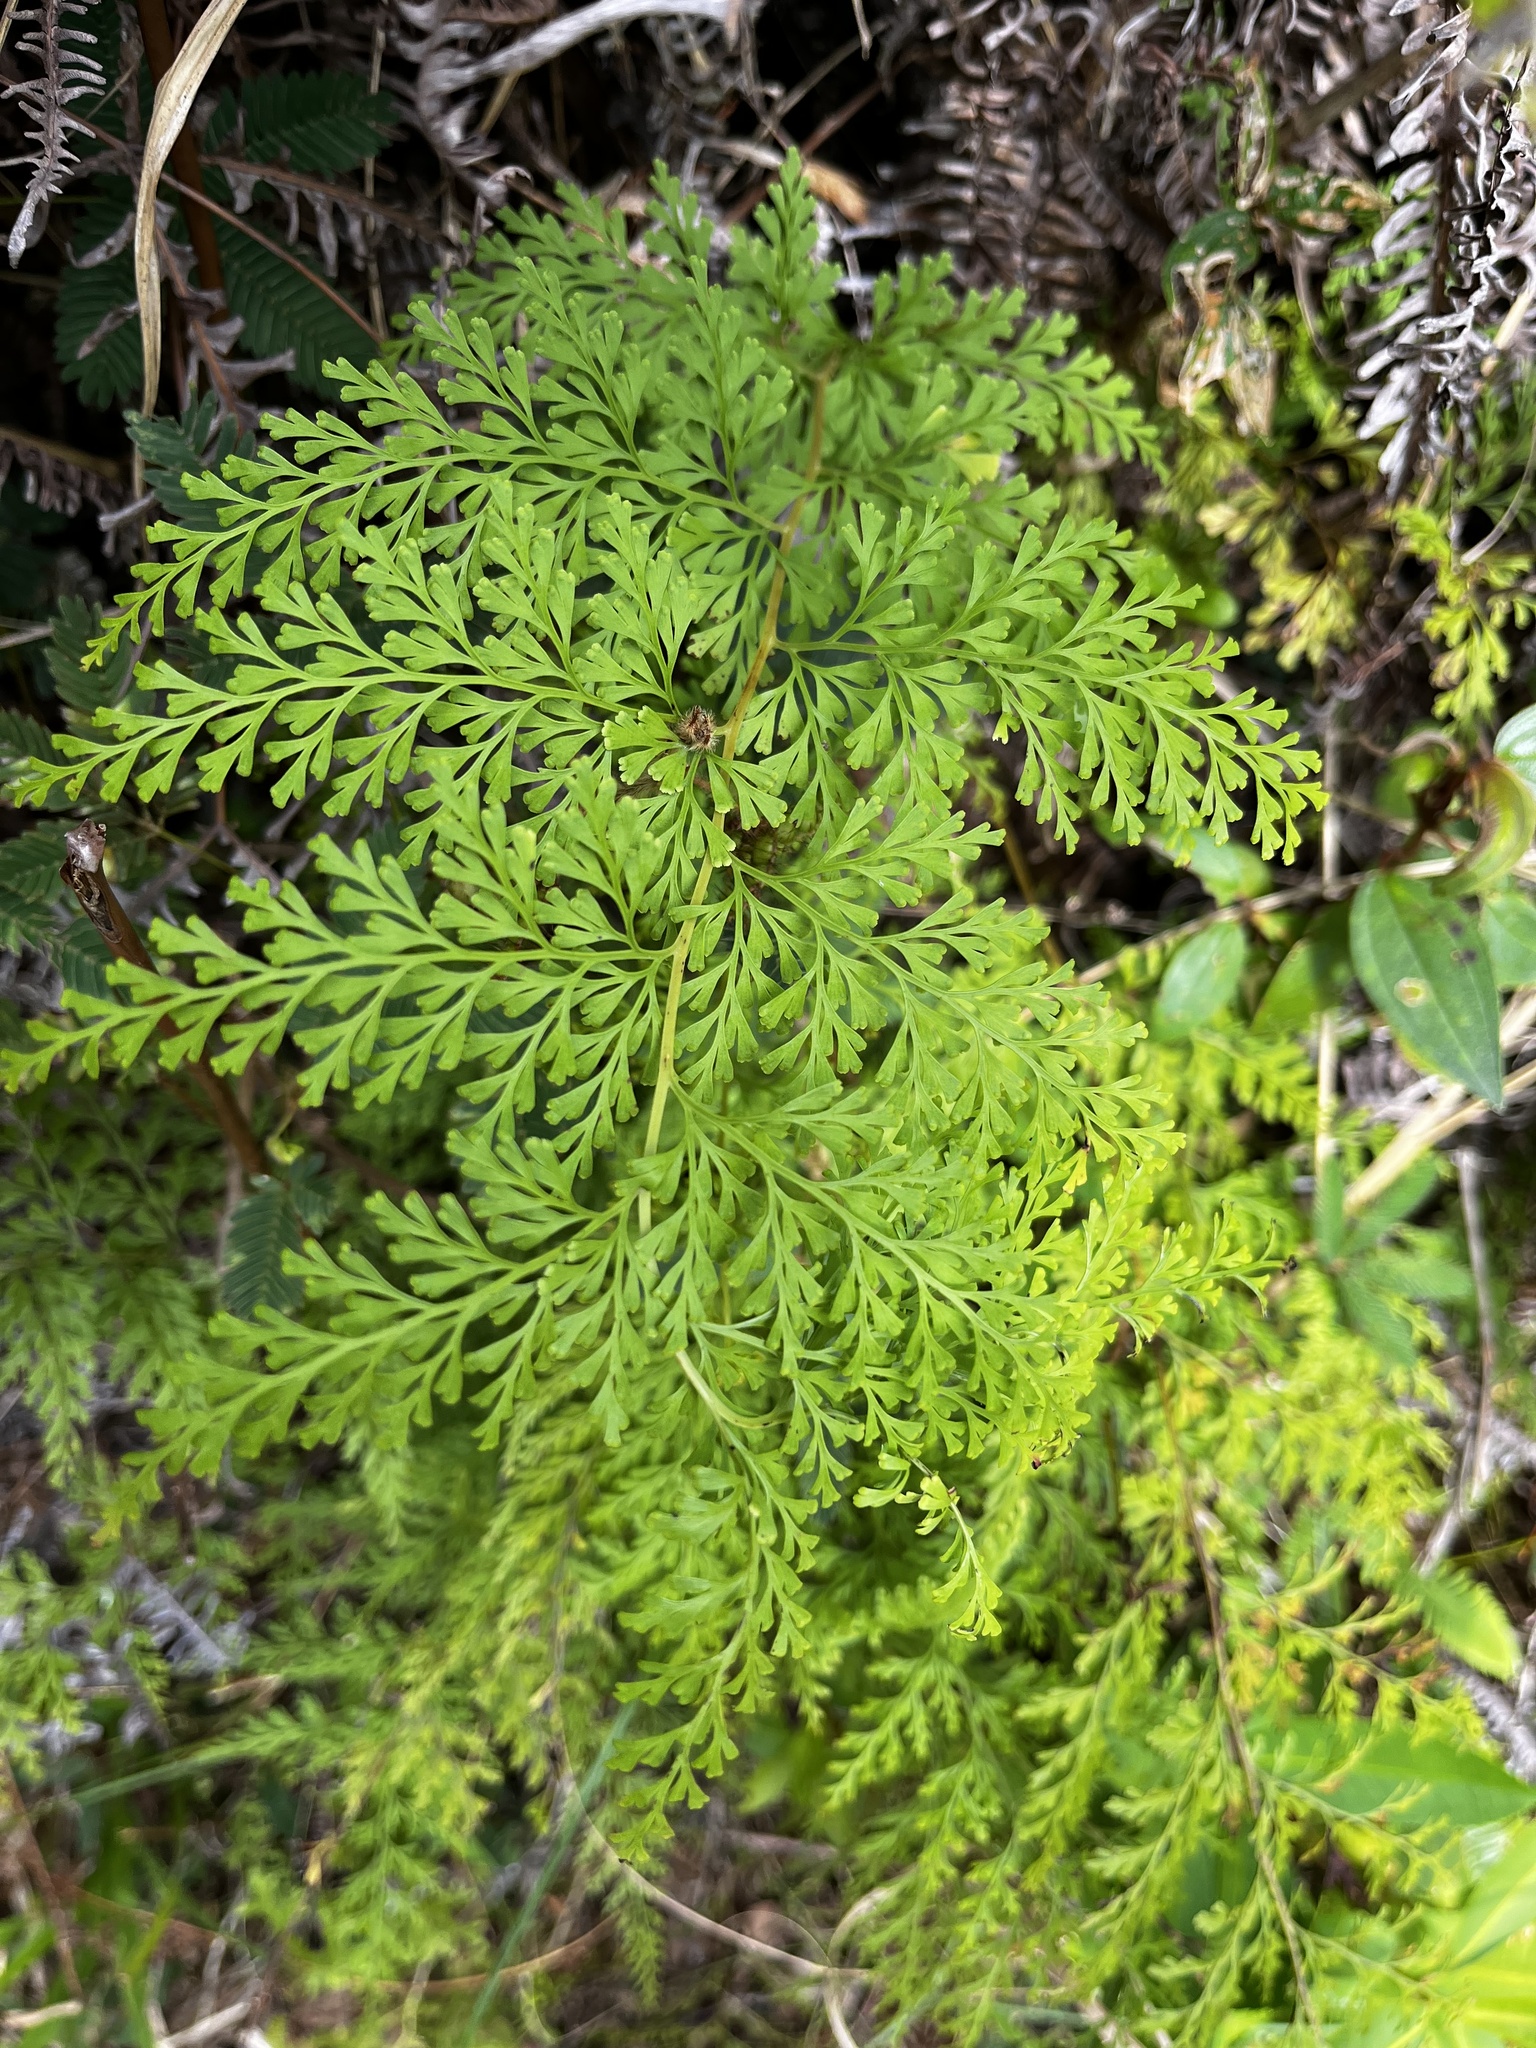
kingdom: Plantae
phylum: Tracheophyta
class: Polypodiopsida
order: Polypodiales
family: Lindsaeaceae
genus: Odontosoria
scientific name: Odontosoria chinensis
